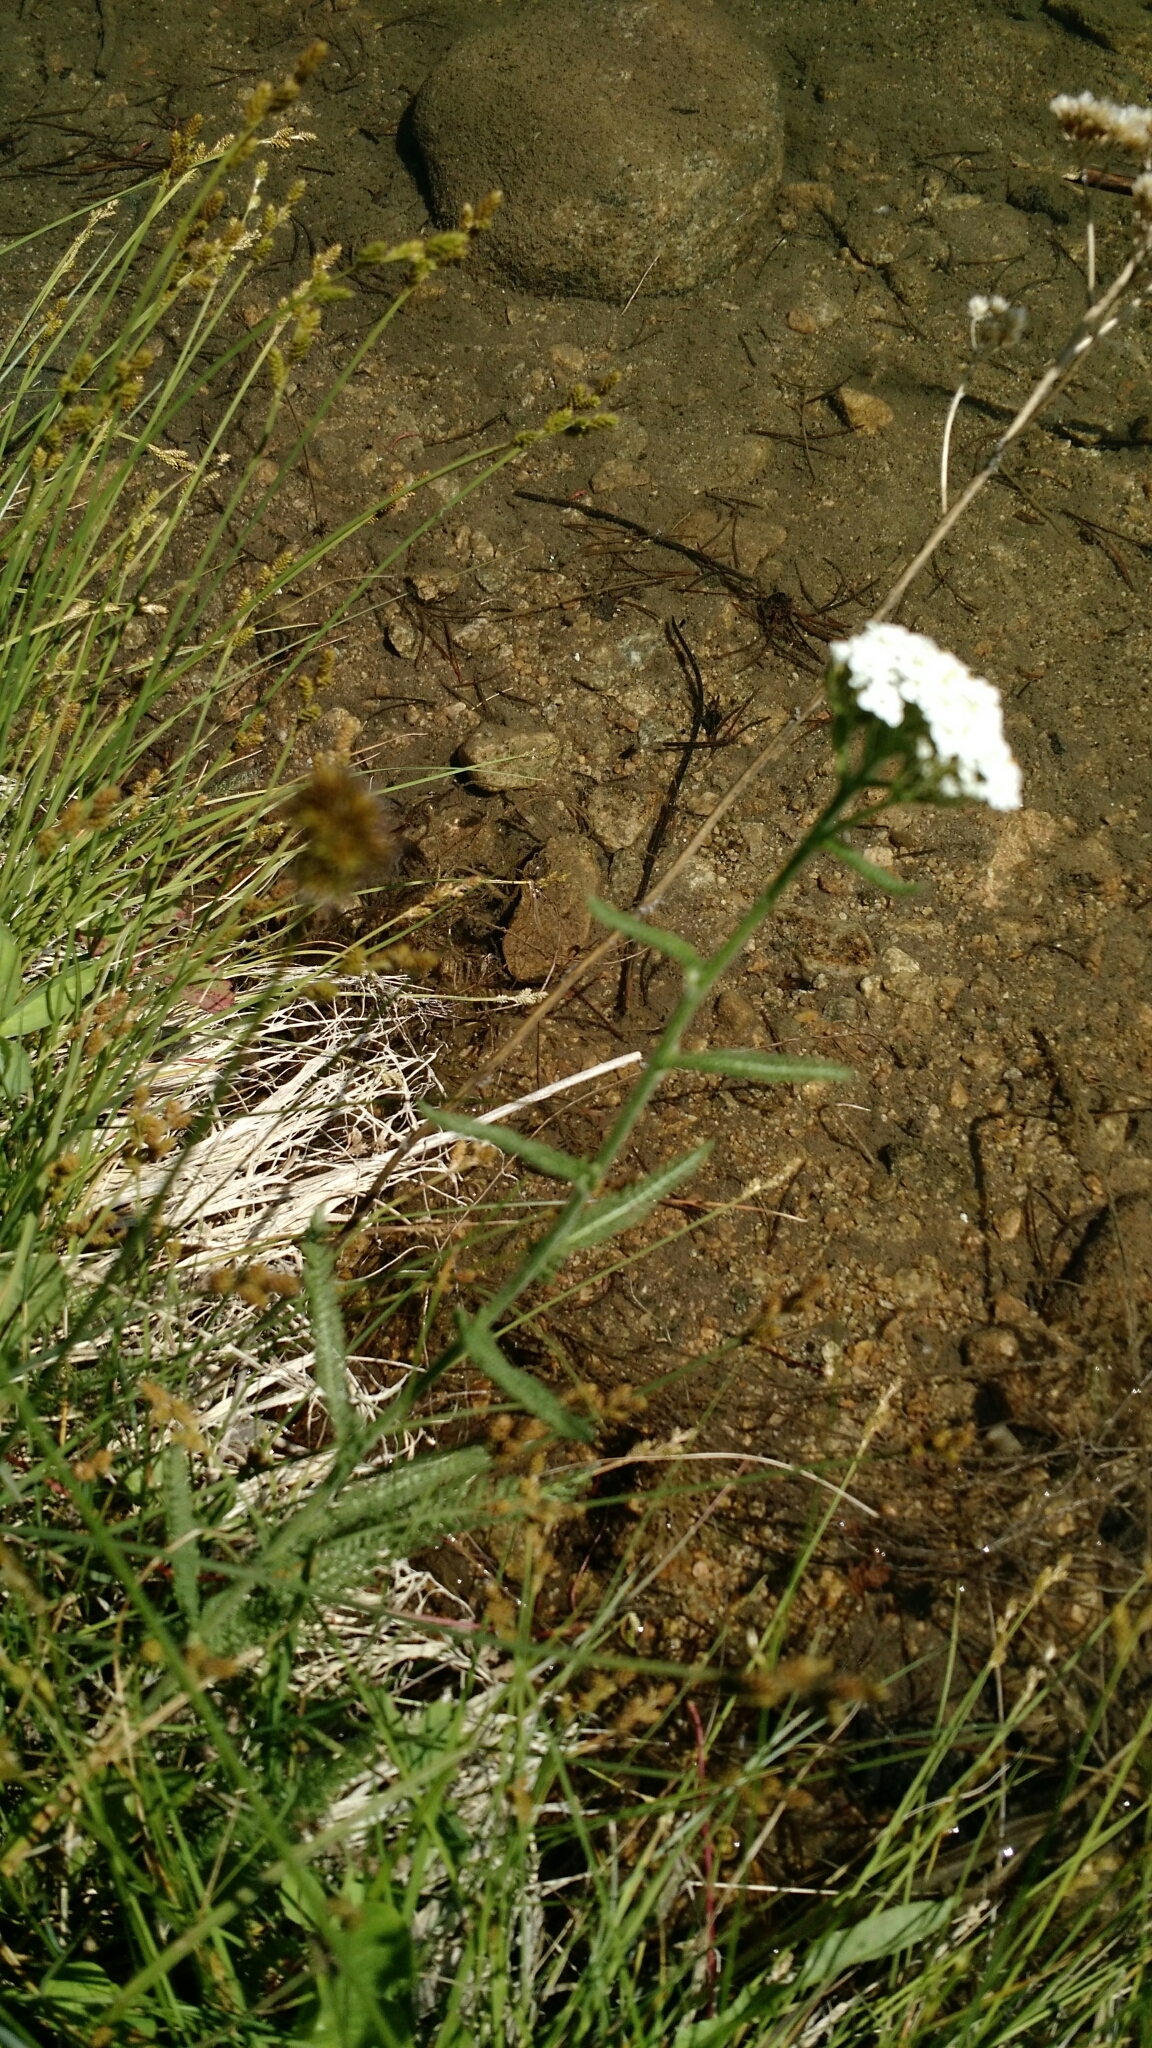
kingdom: Plantae
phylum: Tracheophyta
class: Magnoliopsida
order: Asterales
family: Asteraceae
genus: Achillea
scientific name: Achillea millefolium
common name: Yarrow
